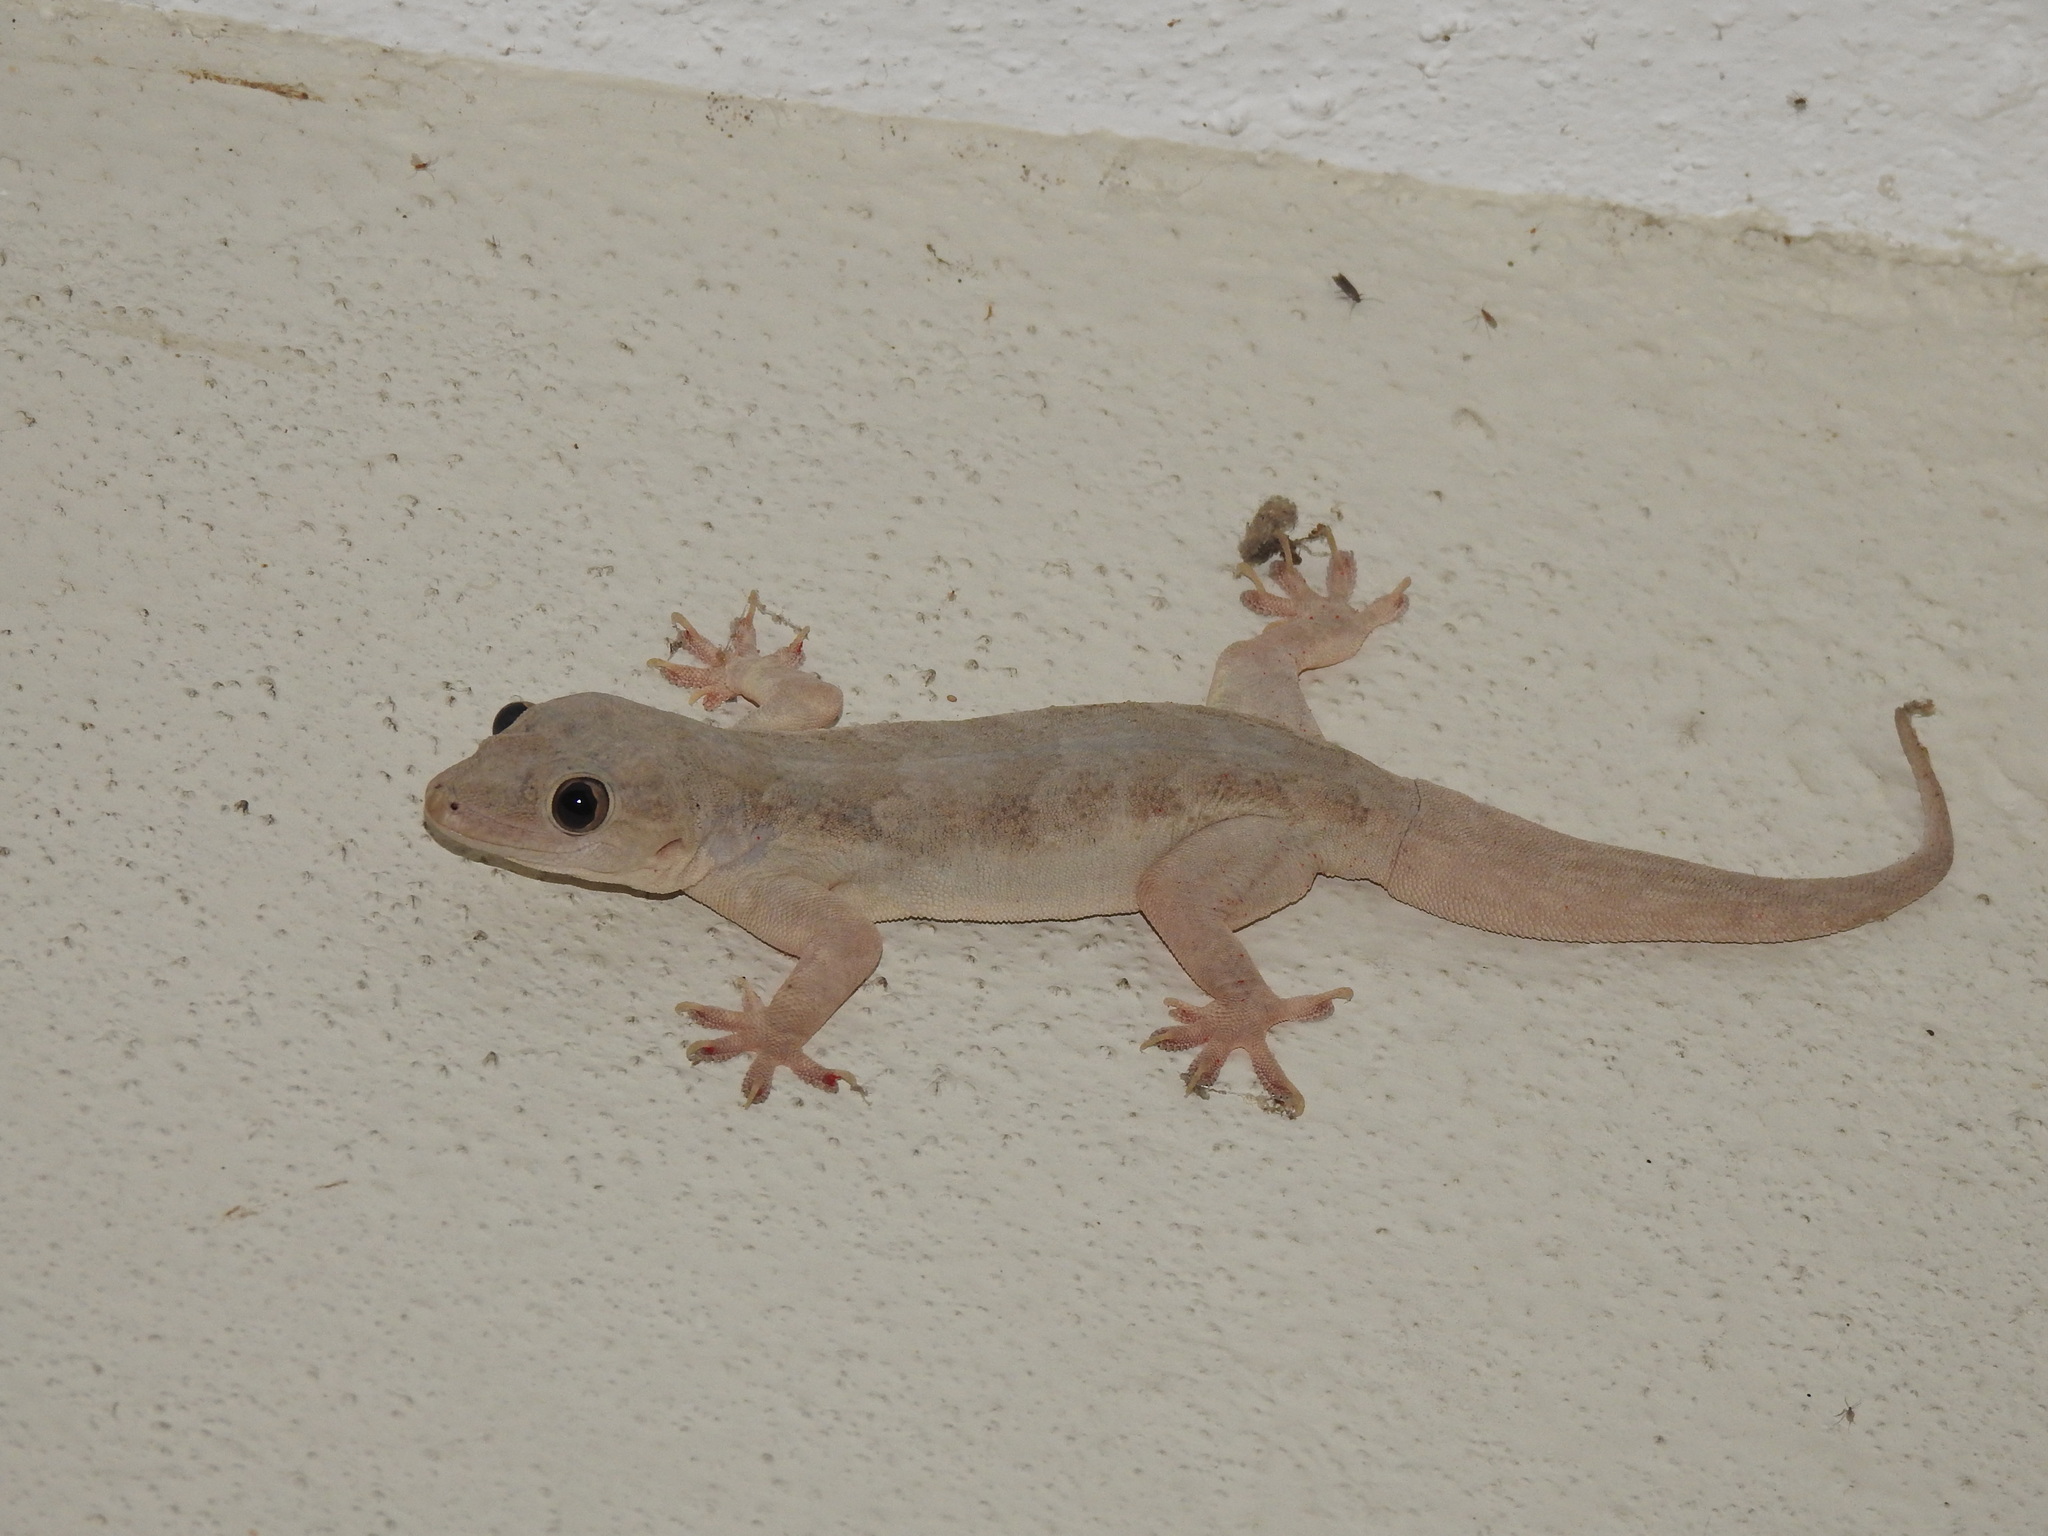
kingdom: Animalia
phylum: Chordata
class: Squamata
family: Gekkonidae
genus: Hemidactylus
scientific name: Hemidactylus flaviviridis
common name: Northern house gecko
